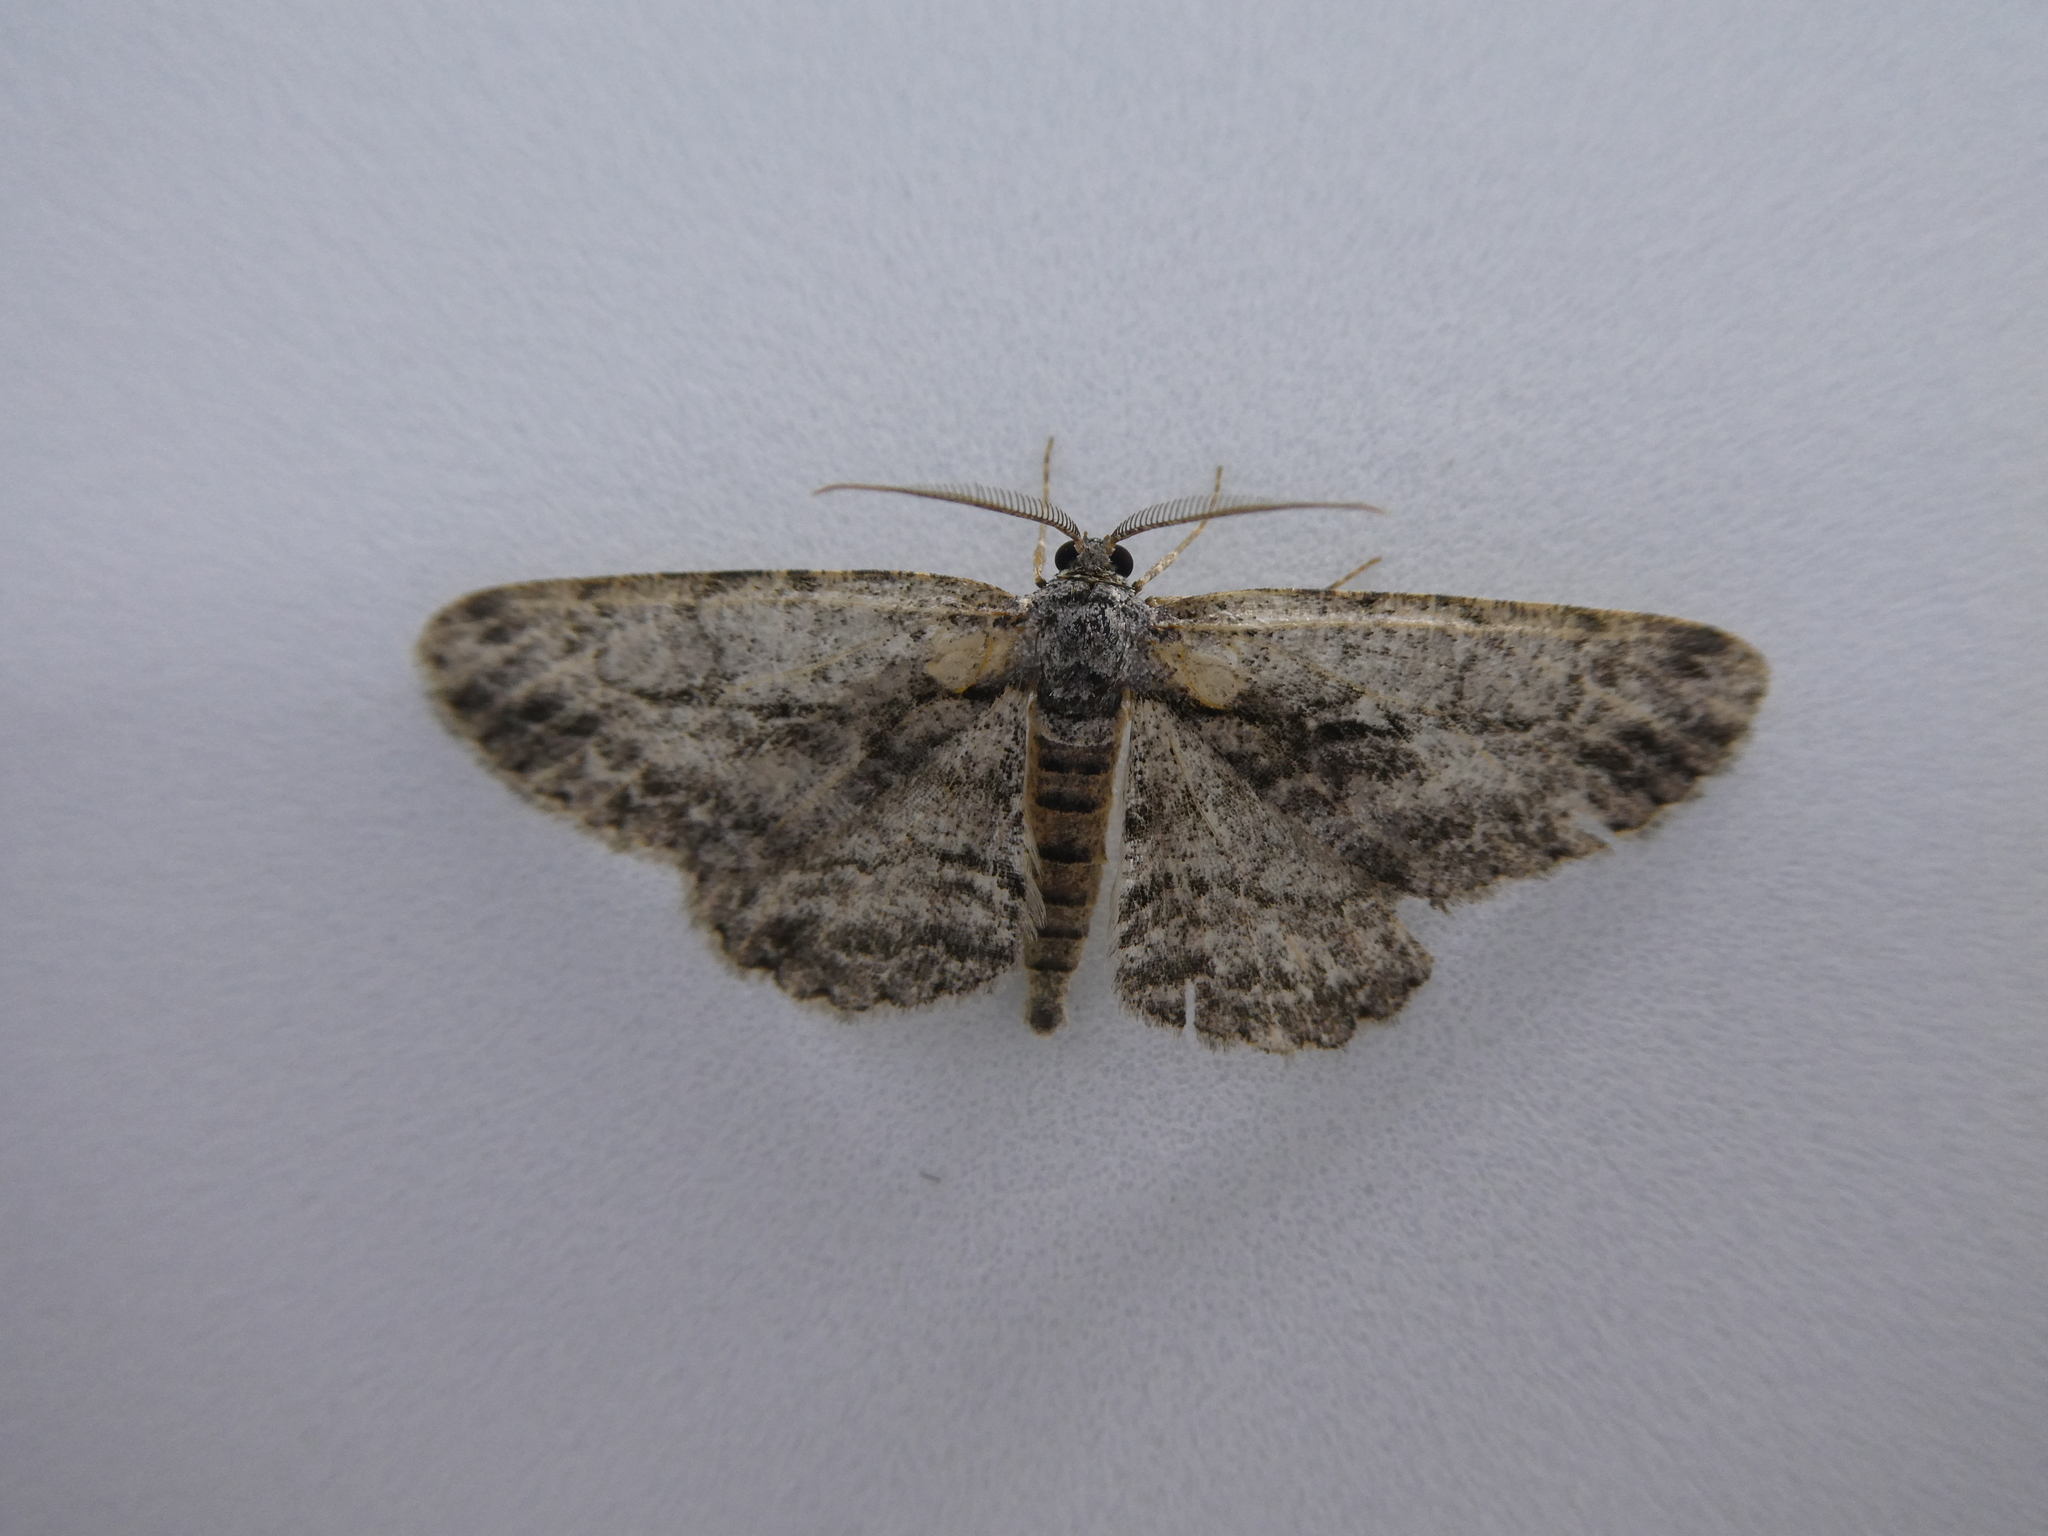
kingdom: Animalia
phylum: Arthropoda
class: Insecta
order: Lepidoptera
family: Geometridae
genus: Anavitrinella
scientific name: Anavitrinella pampinaria
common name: Common gray
